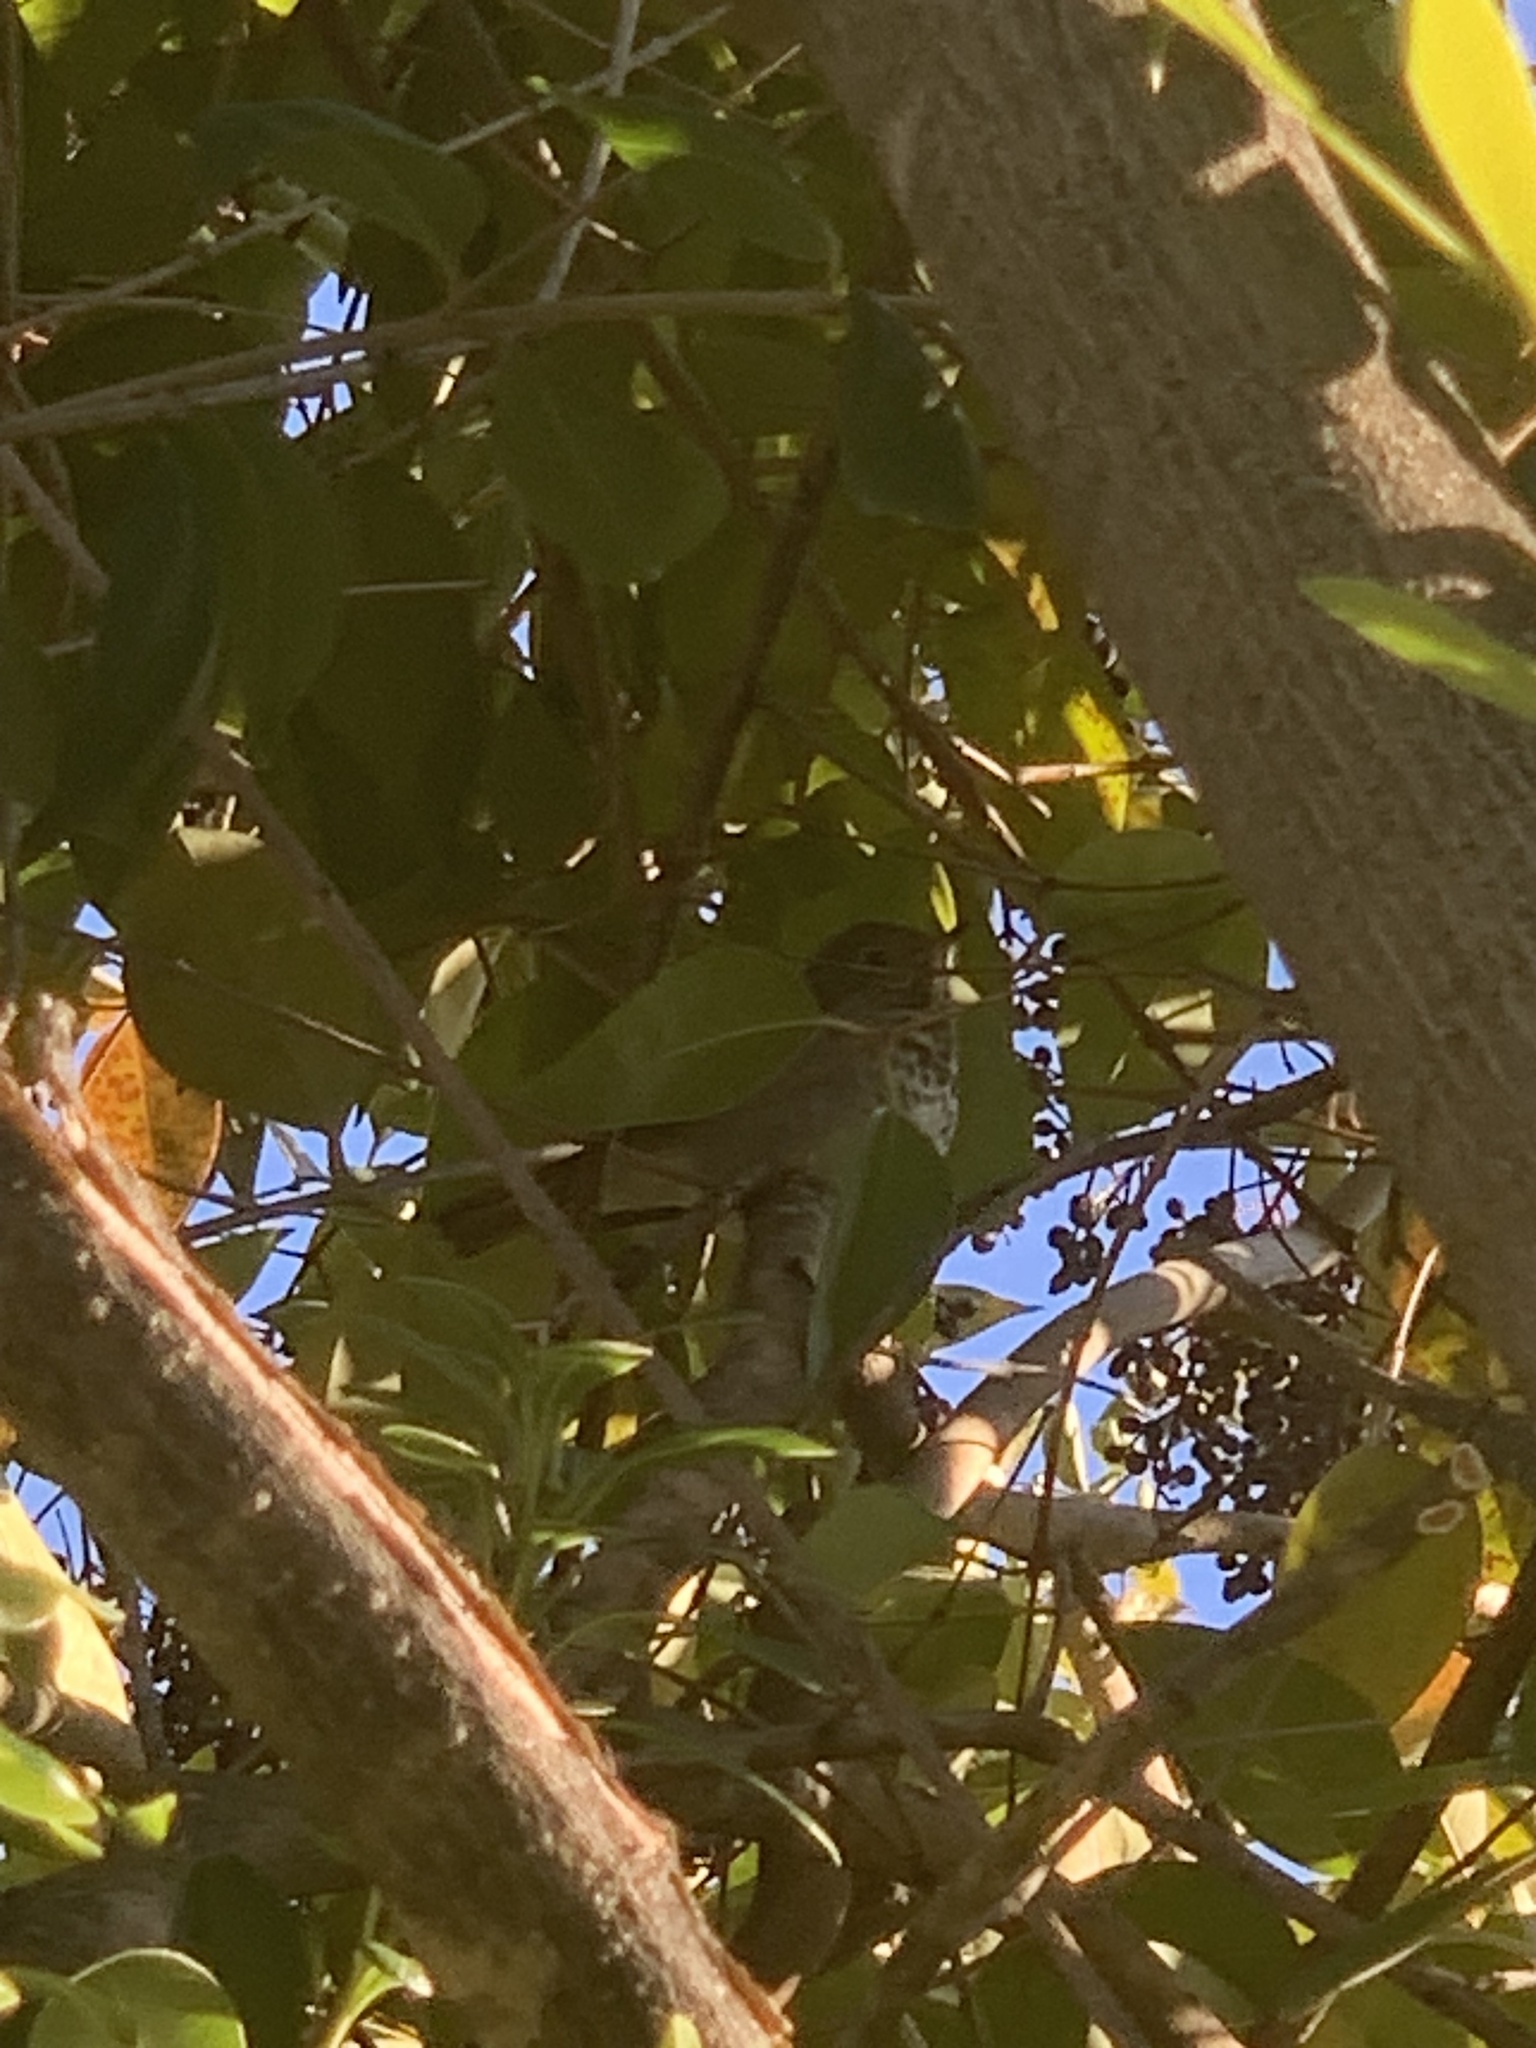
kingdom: Animalia
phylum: Chordata
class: Aves
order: Passeriformes
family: Turdidae
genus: Catharus
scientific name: Catharus guttatus
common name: Hermit thrush
